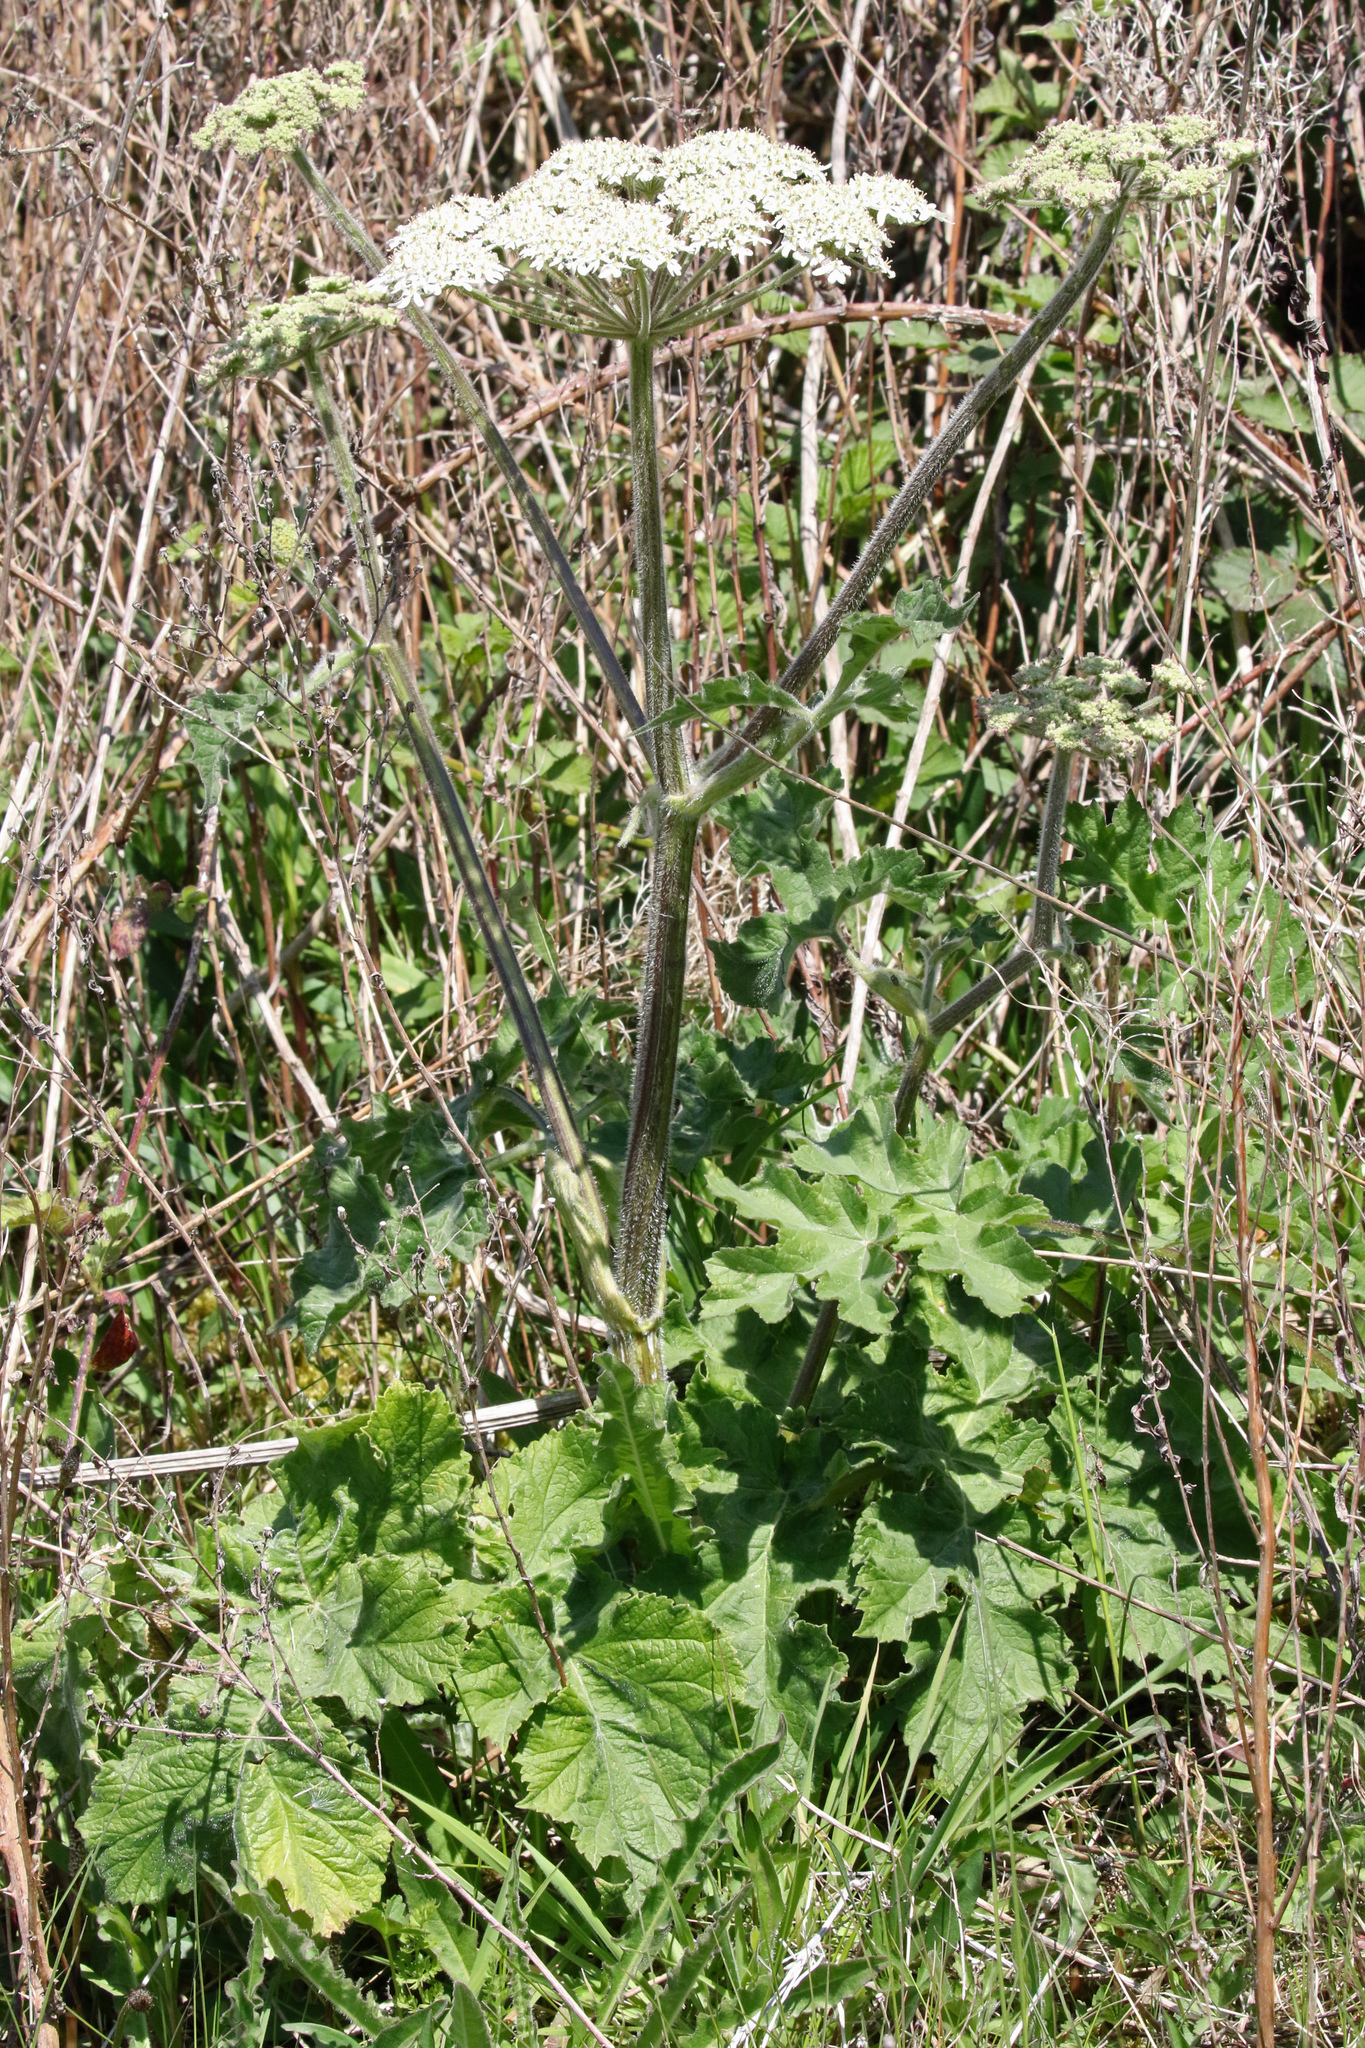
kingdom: Plantae
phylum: Tracheophyta
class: Magnoliopsida
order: Apiales
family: Apiaceae
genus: Heracleum
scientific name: Heracleum sphondylium
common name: Hogweed
